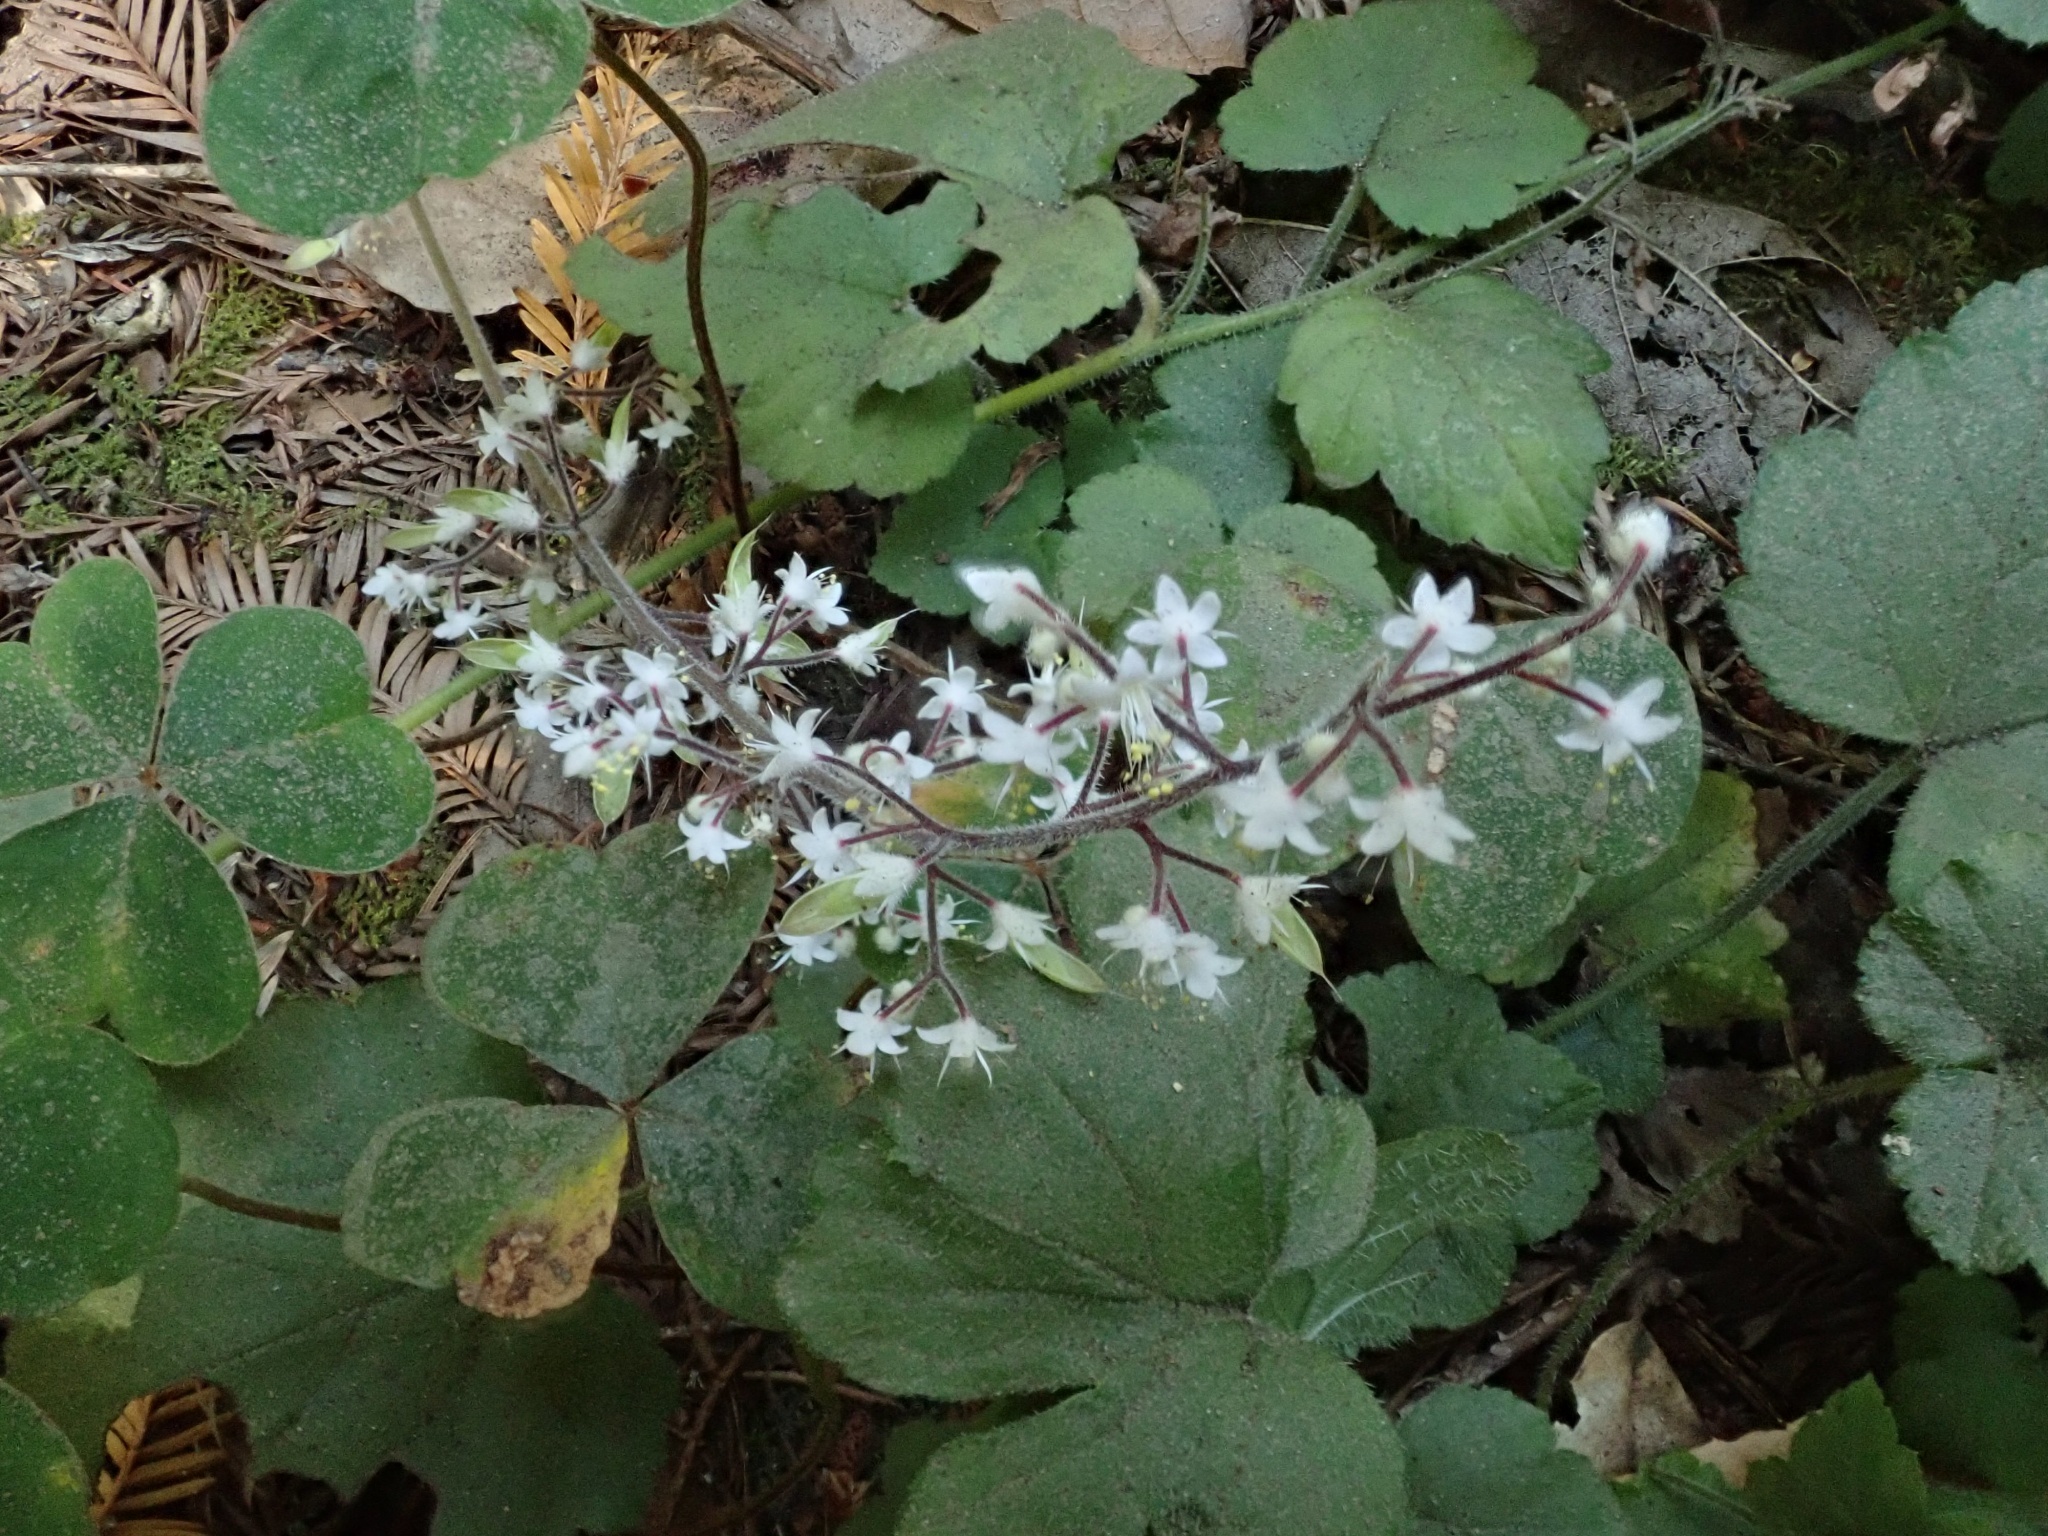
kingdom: Plantae
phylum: Tracheophyta
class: Magnoliopsida
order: Saxifragales
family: Saxifragaceae
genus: Tiarella
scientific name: Tiarella trifoliata
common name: Sugar-scoop
